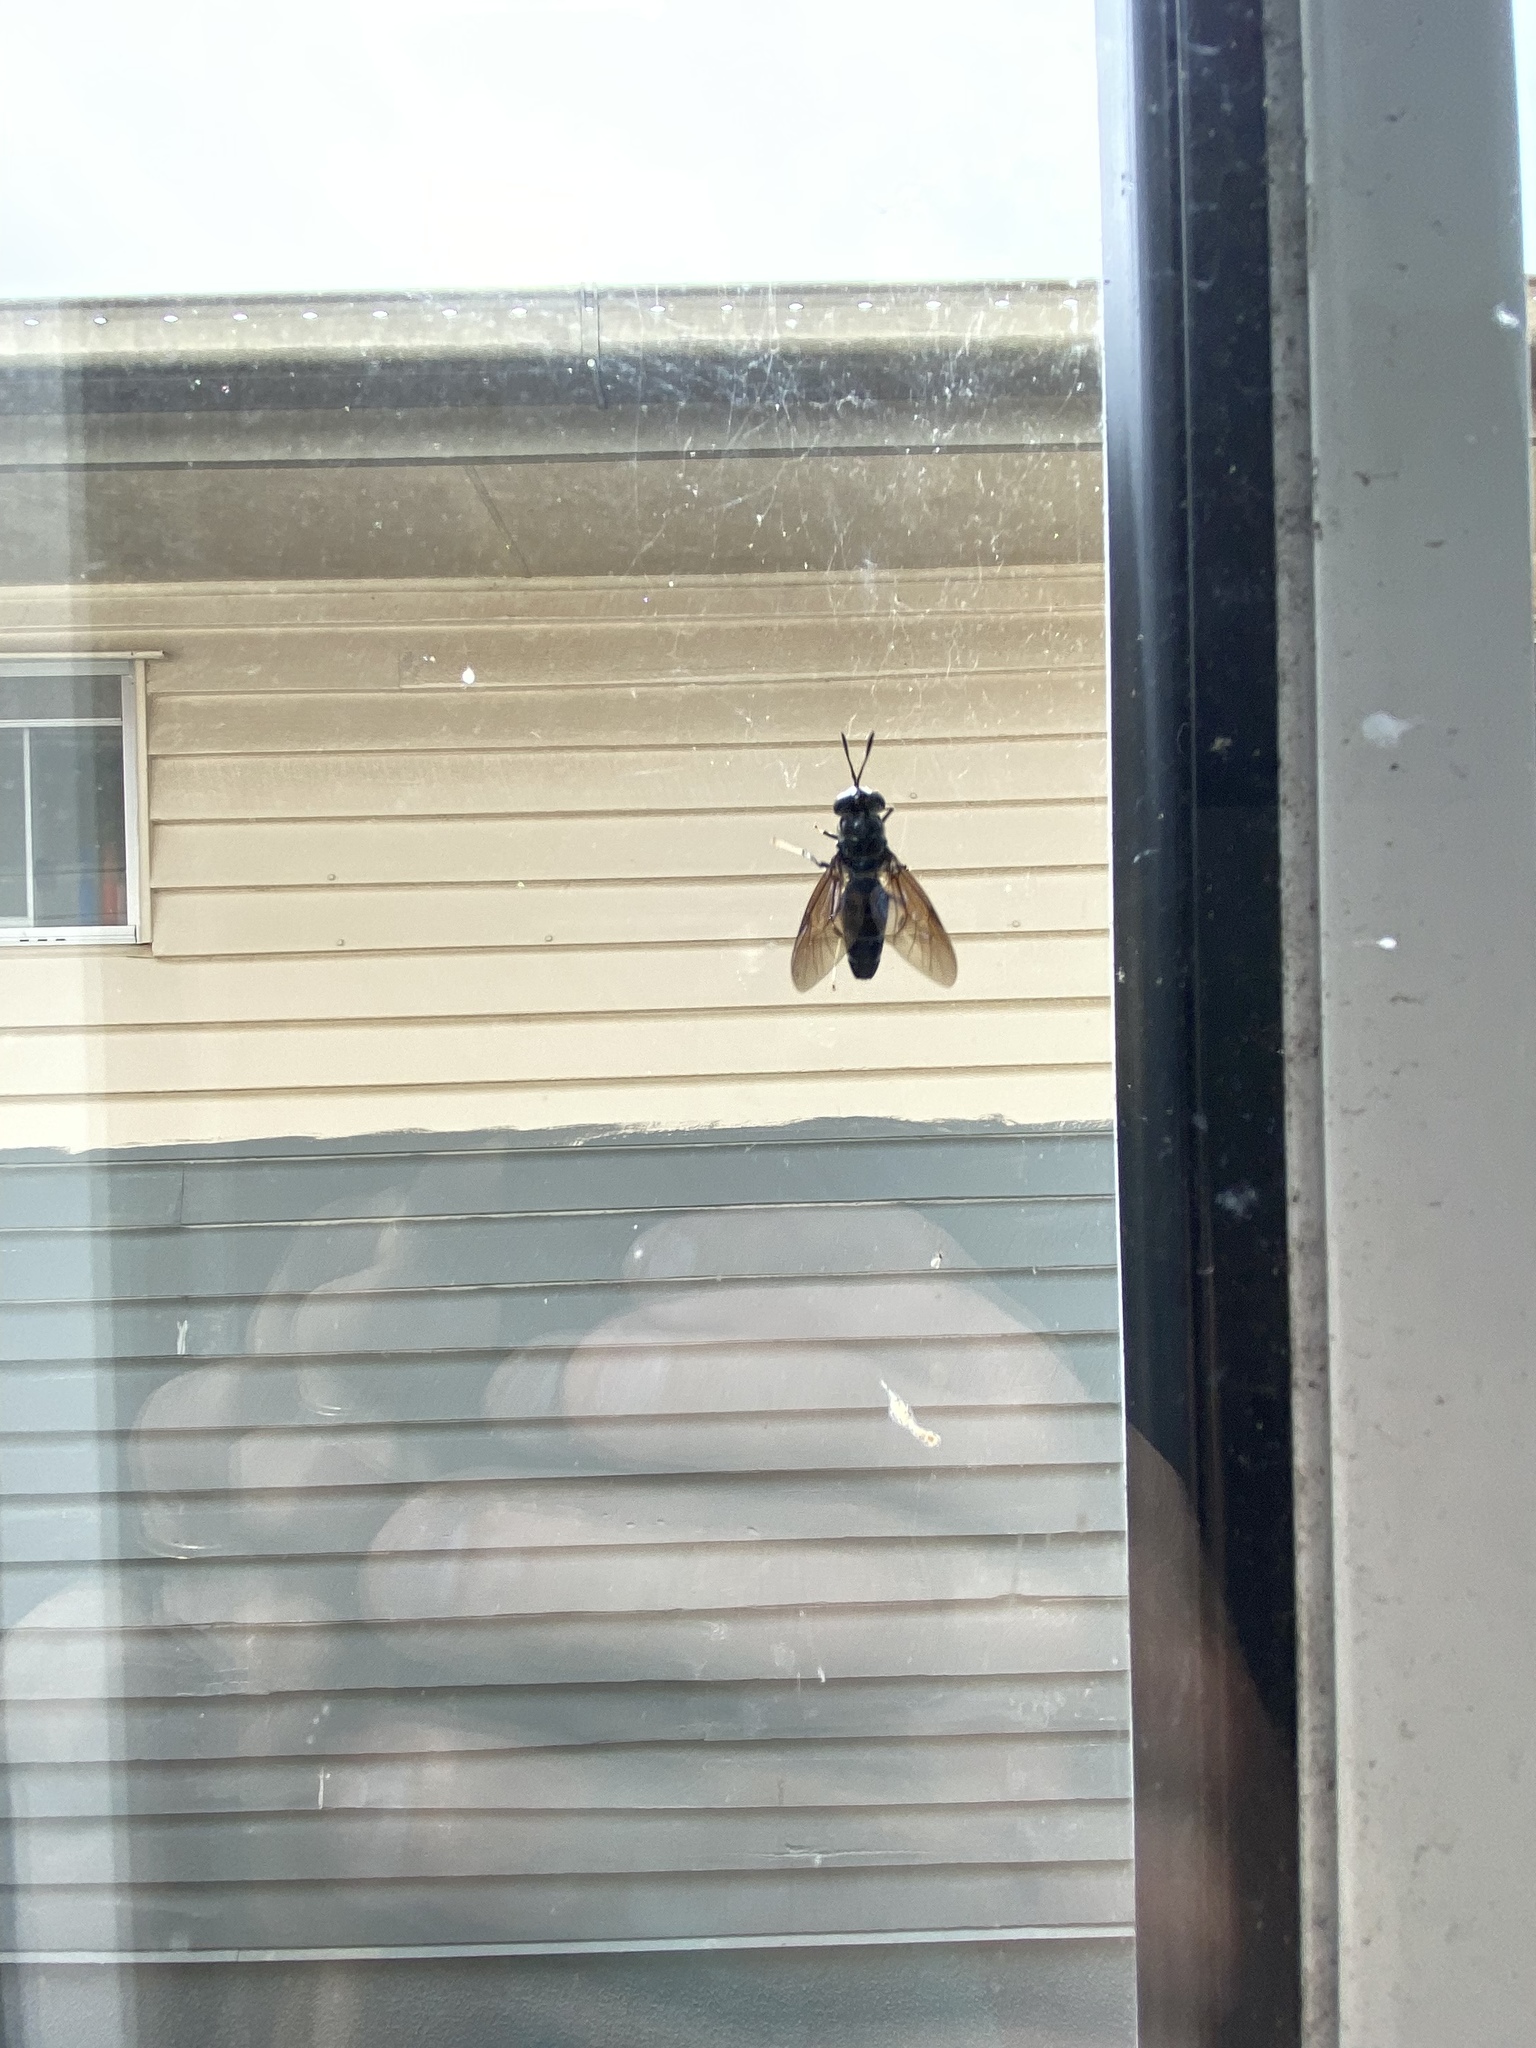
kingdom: Animalia
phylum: Arthropoda
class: Insecta
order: Diptera
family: Stratiomyidae
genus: Hermetia
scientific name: Hermetia illucens
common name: Black soldier fly
